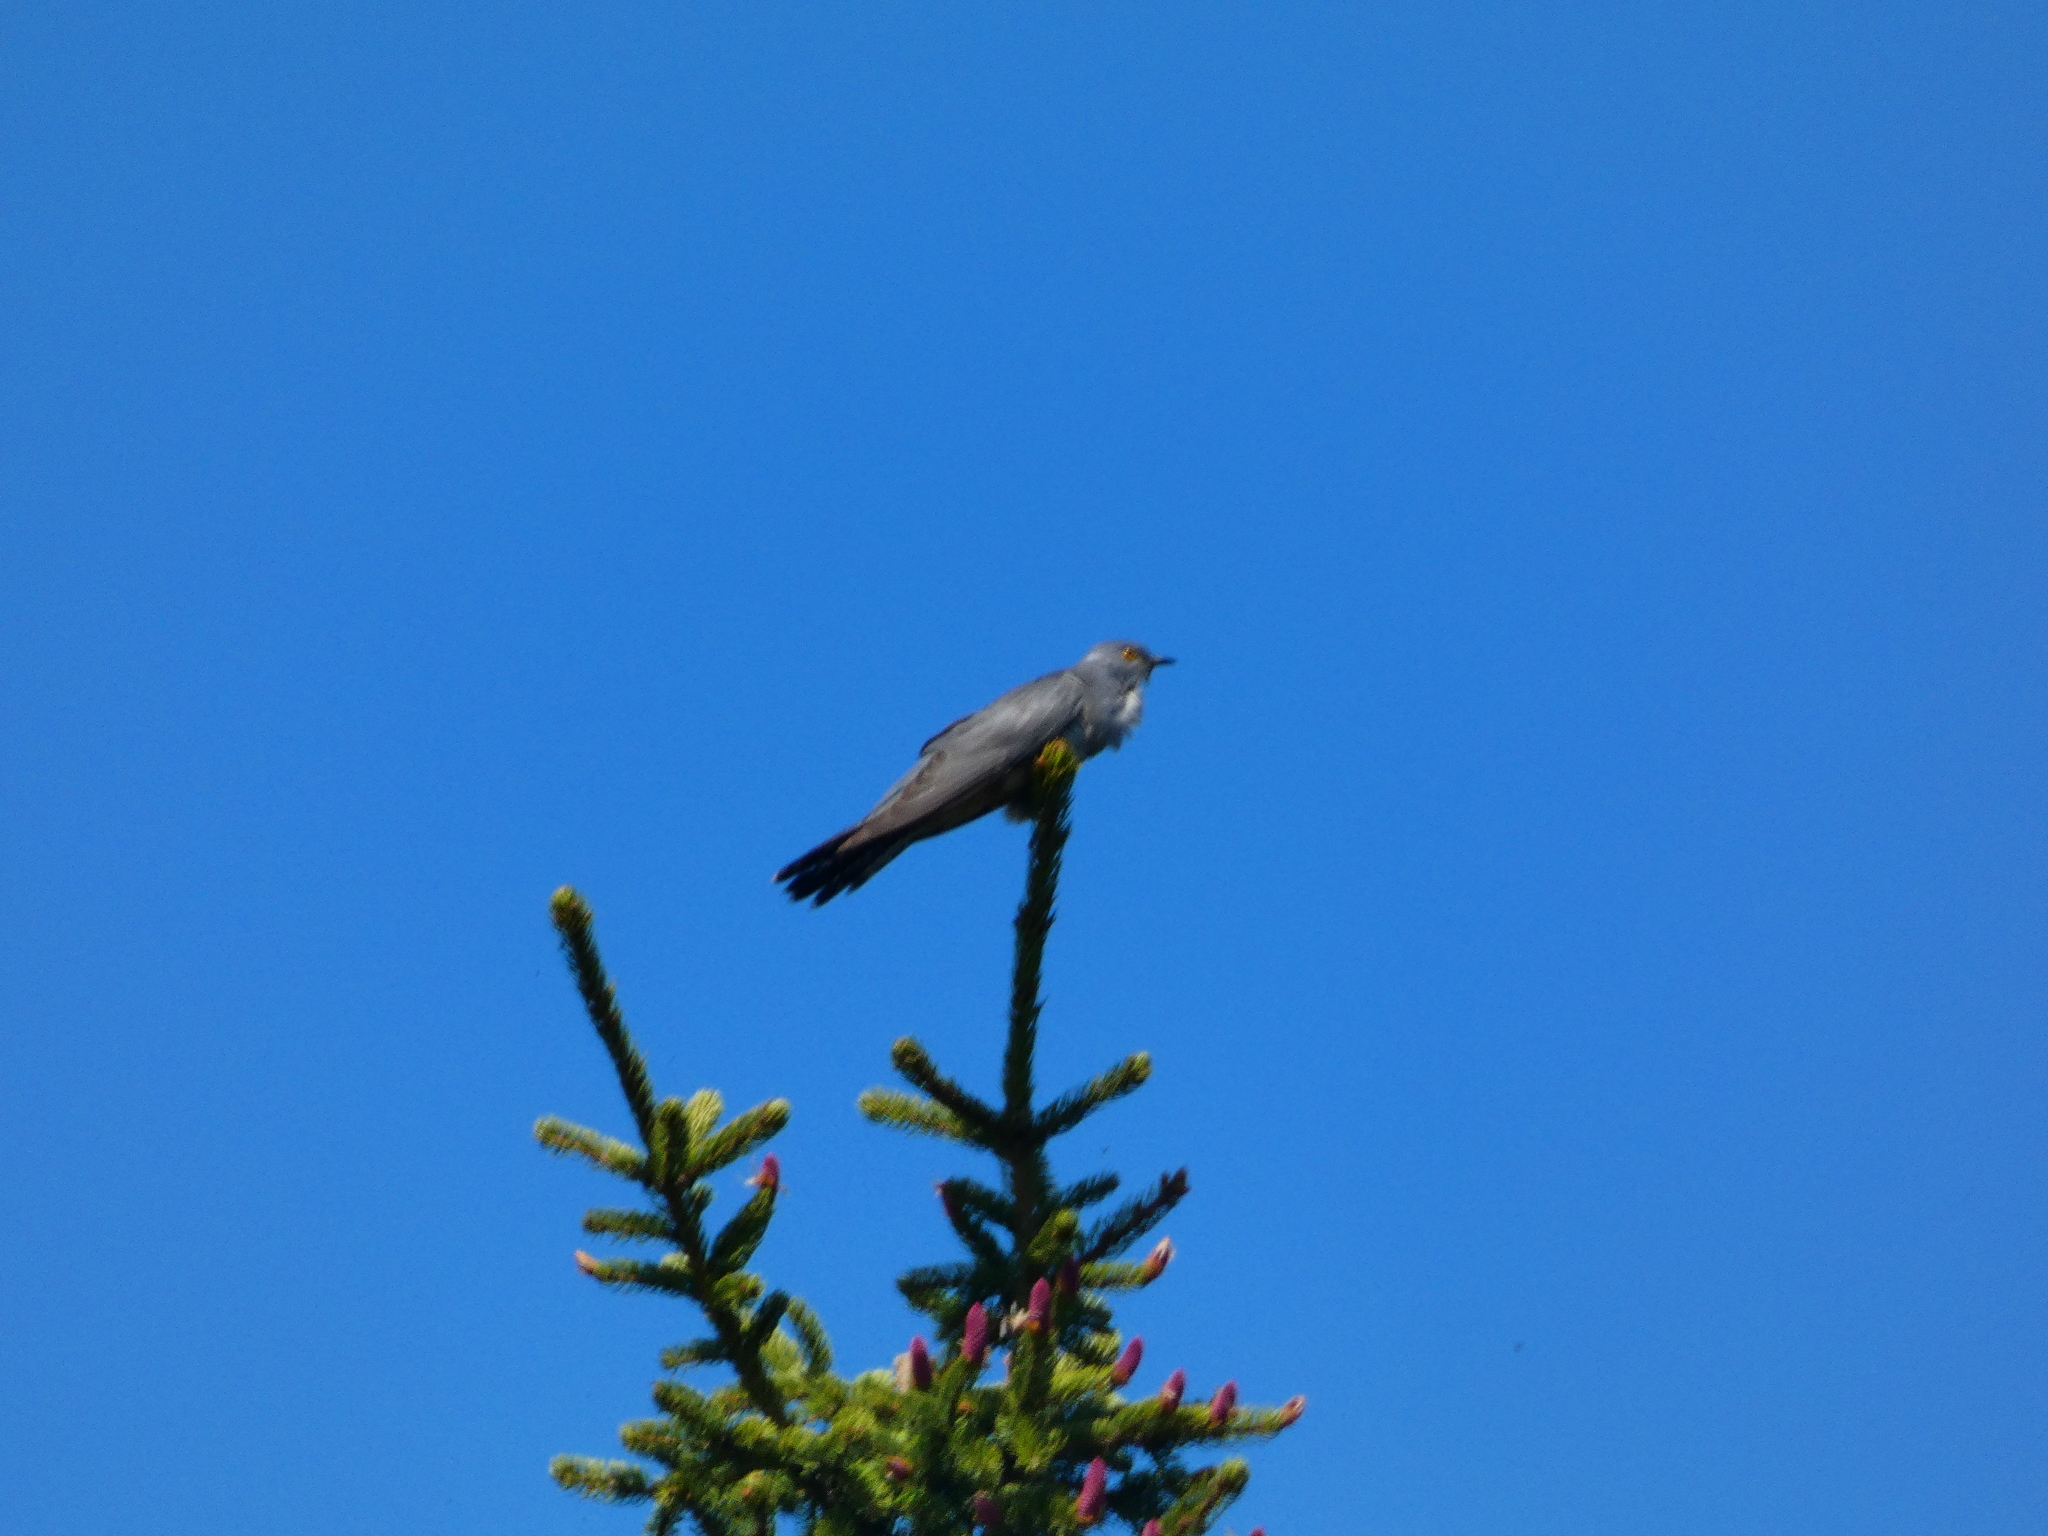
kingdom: Animalia
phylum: Chordata
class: Aves
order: Cuculiformes
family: Cuculidae
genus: Cuculus
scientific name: Cuculus canorus
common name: Common cuckoo
